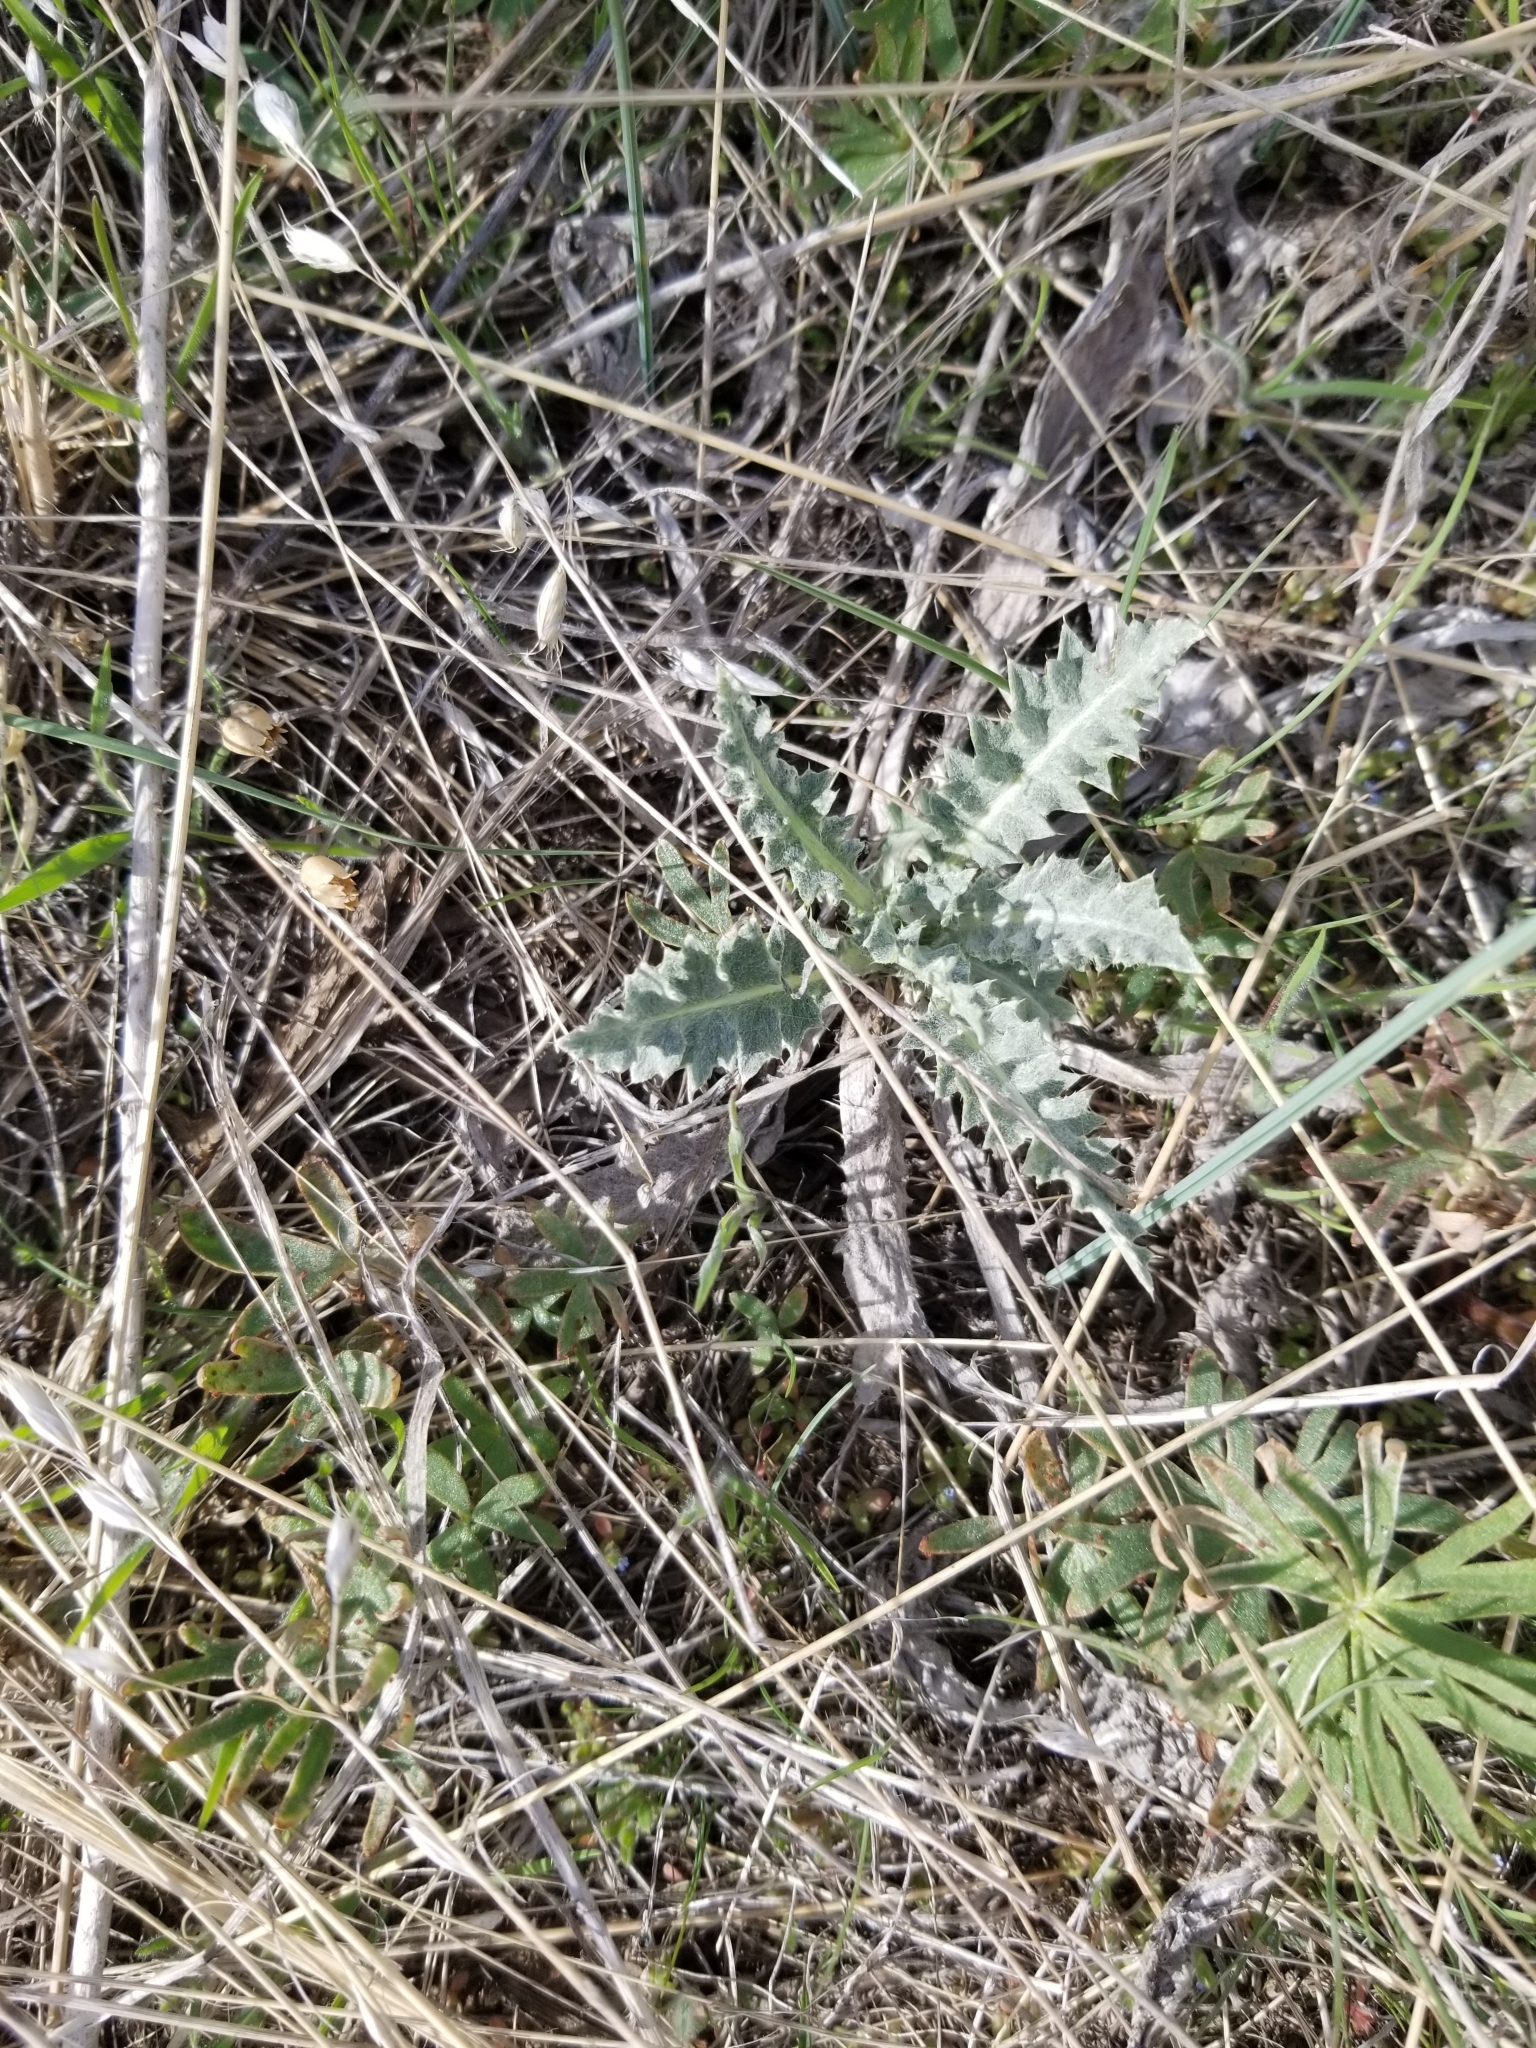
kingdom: Plantae
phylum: Tracheophyta
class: Magnoliopsida
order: Asterales
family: Asteraceae
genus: Cirsium
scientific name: Cirsium undulatum
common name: Pasture thistle
